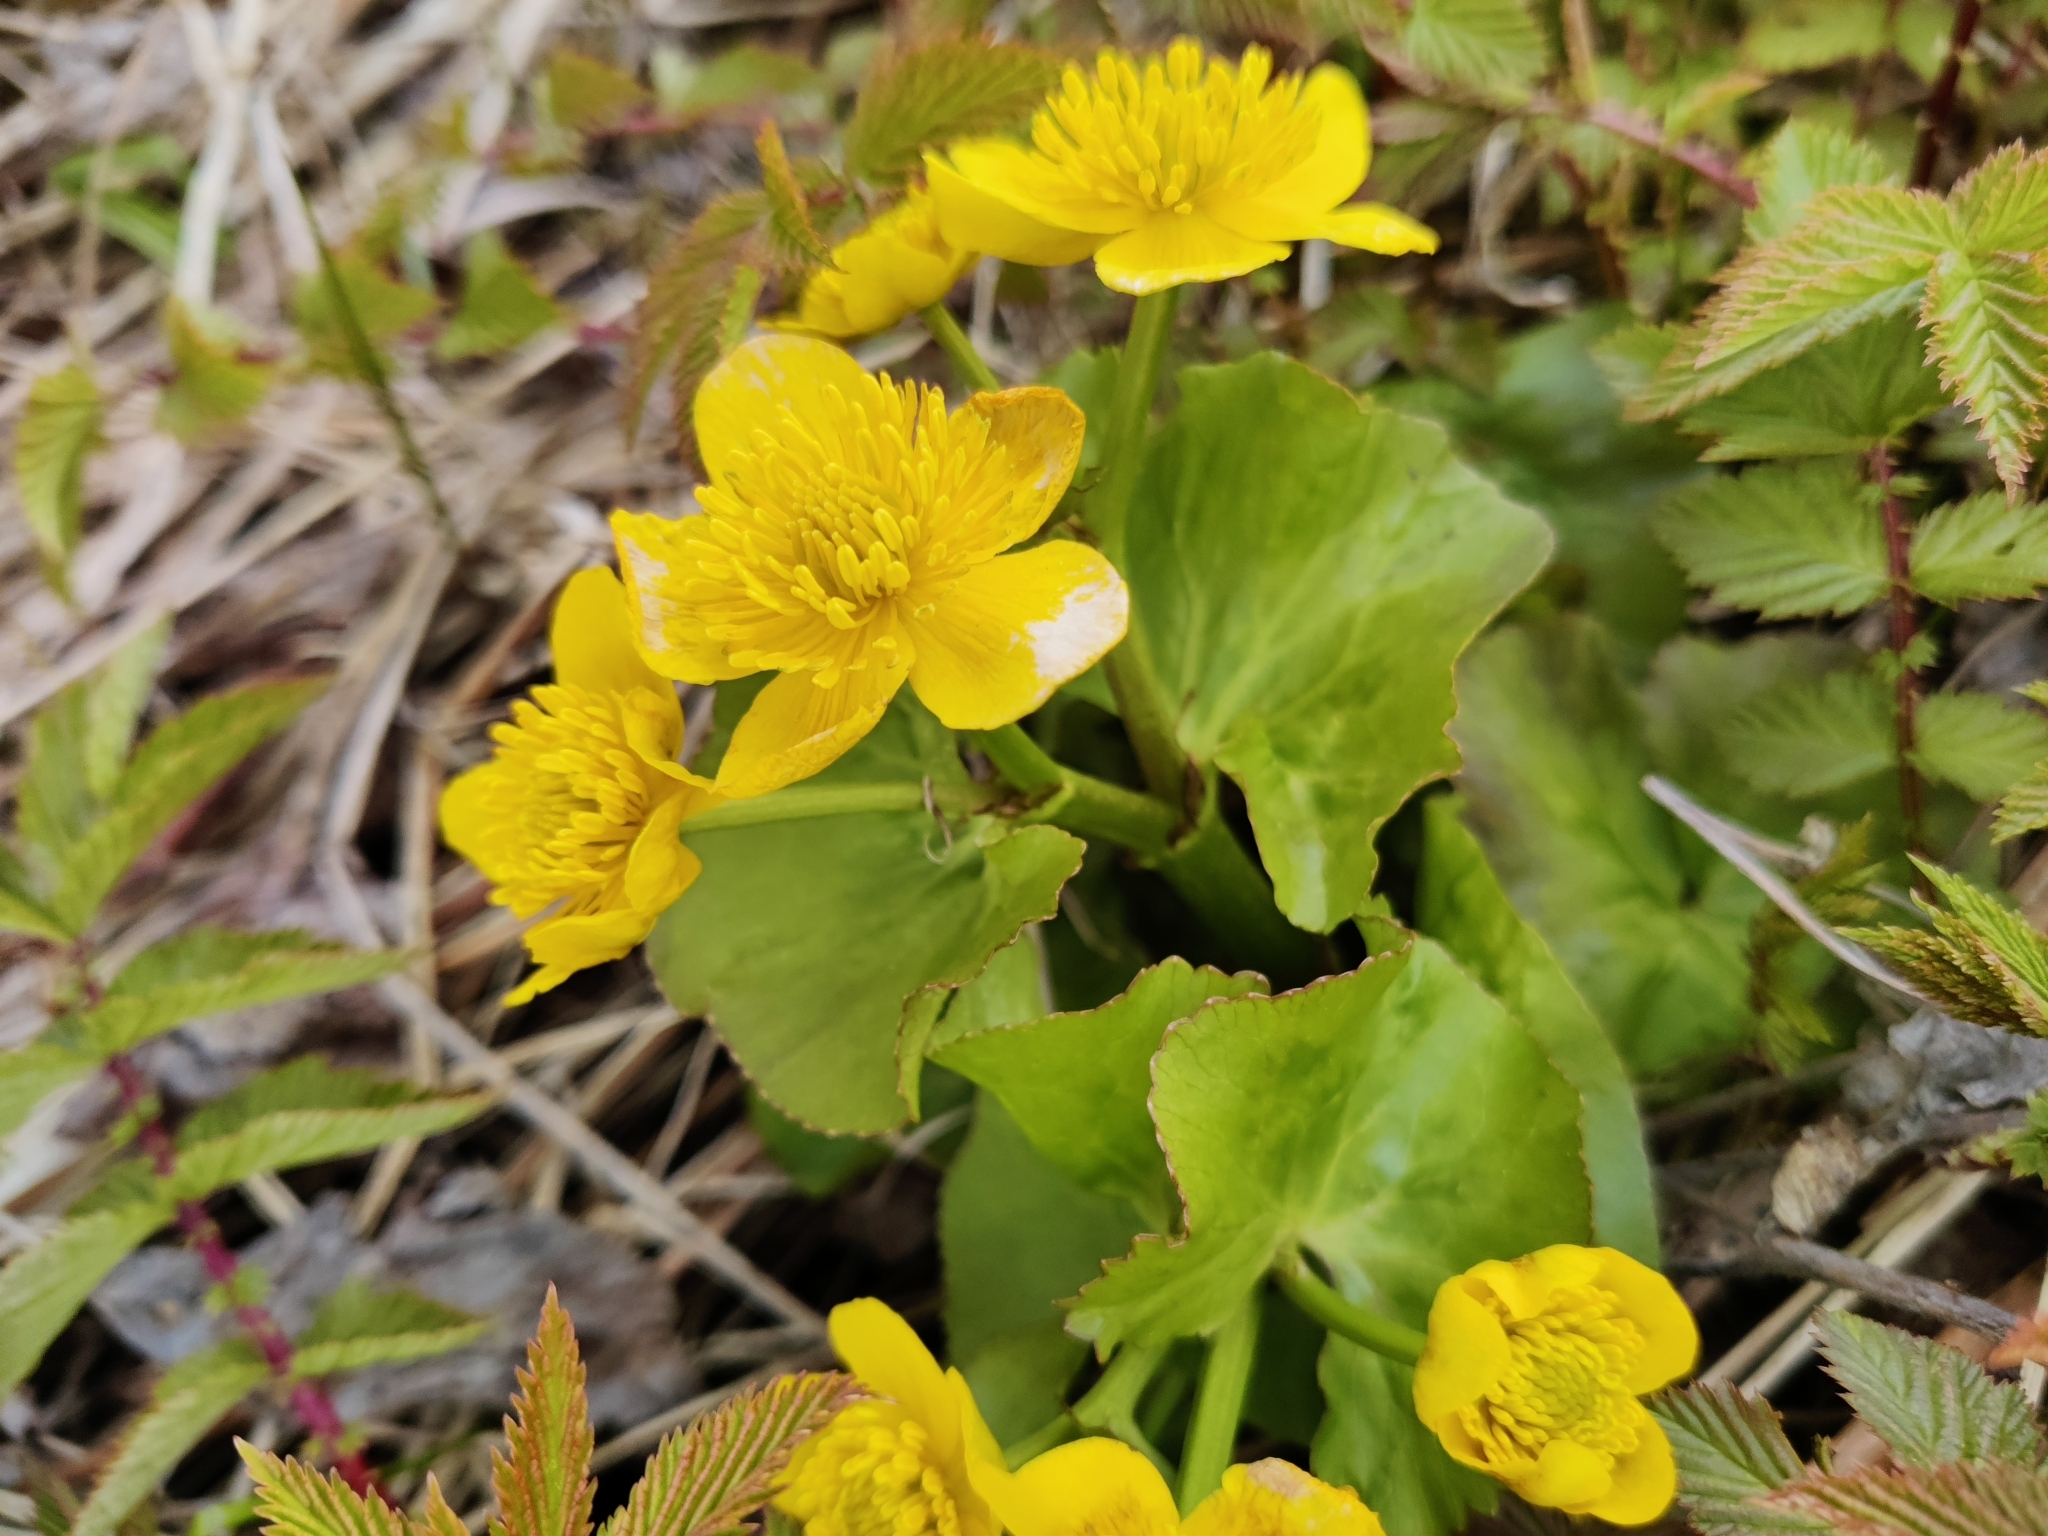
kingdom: Plantae
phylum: Tracheophyta
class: Magnoliopsida
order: Ranunculales
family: Ranunculaceae
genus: Caltha
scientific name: Caltha palustris
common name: Marsh marigold
